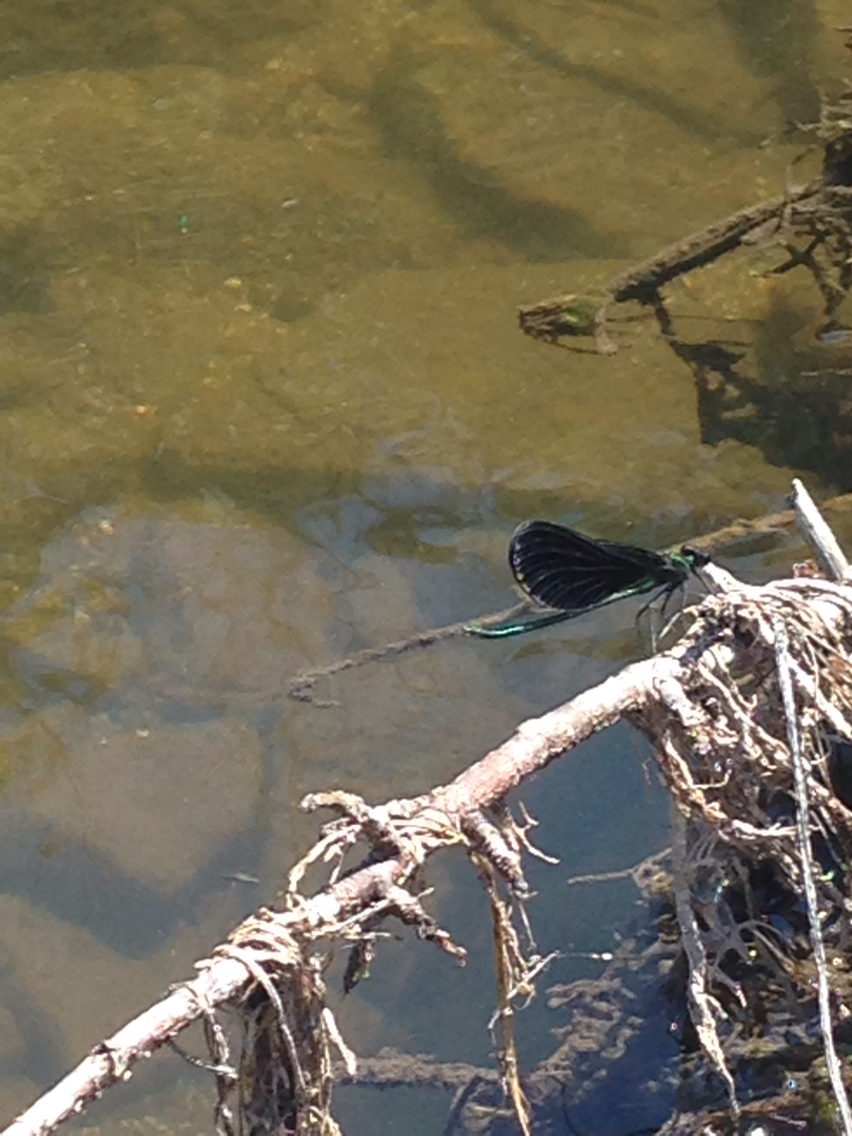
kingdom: Animalia
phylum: Arthropoda
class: Insecta
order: Odonata
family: Calopterygidae
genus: Calopteryx
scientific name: Calopteryx maculata
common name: Ebony jewelwing
